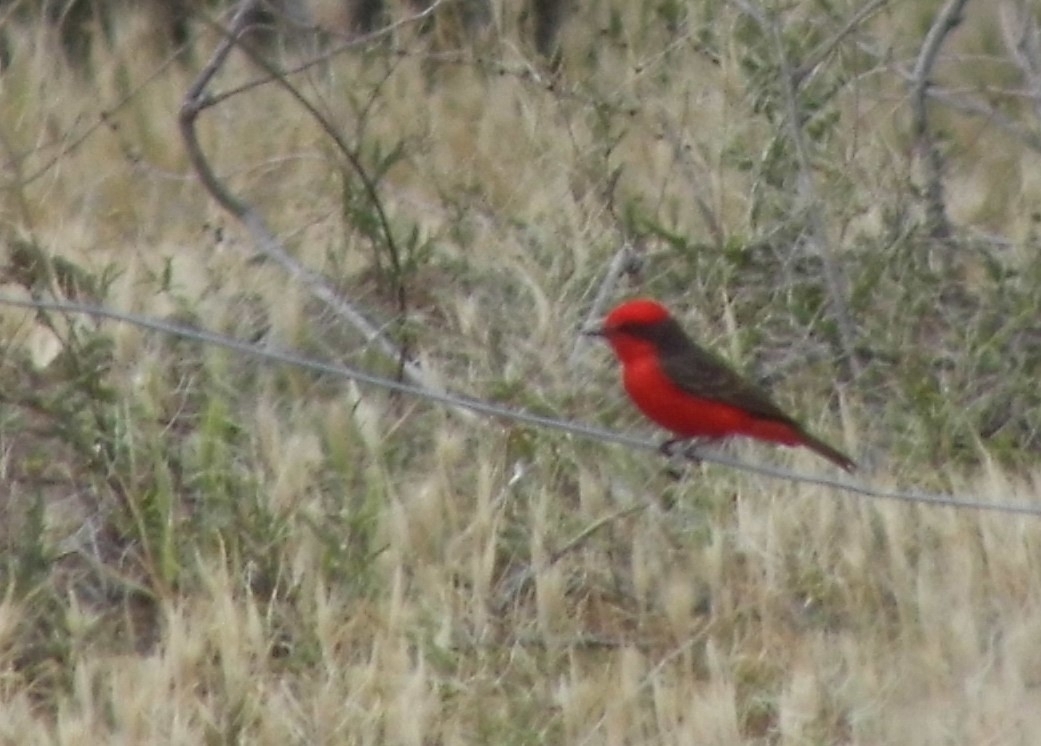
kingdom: Animalia
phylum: Chordata
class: Aves
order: Passeriformes
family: Tyrannidae
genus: Pyrocephalus
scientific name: Pyrocephalus rubinus
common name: Vermilion flycatcher
